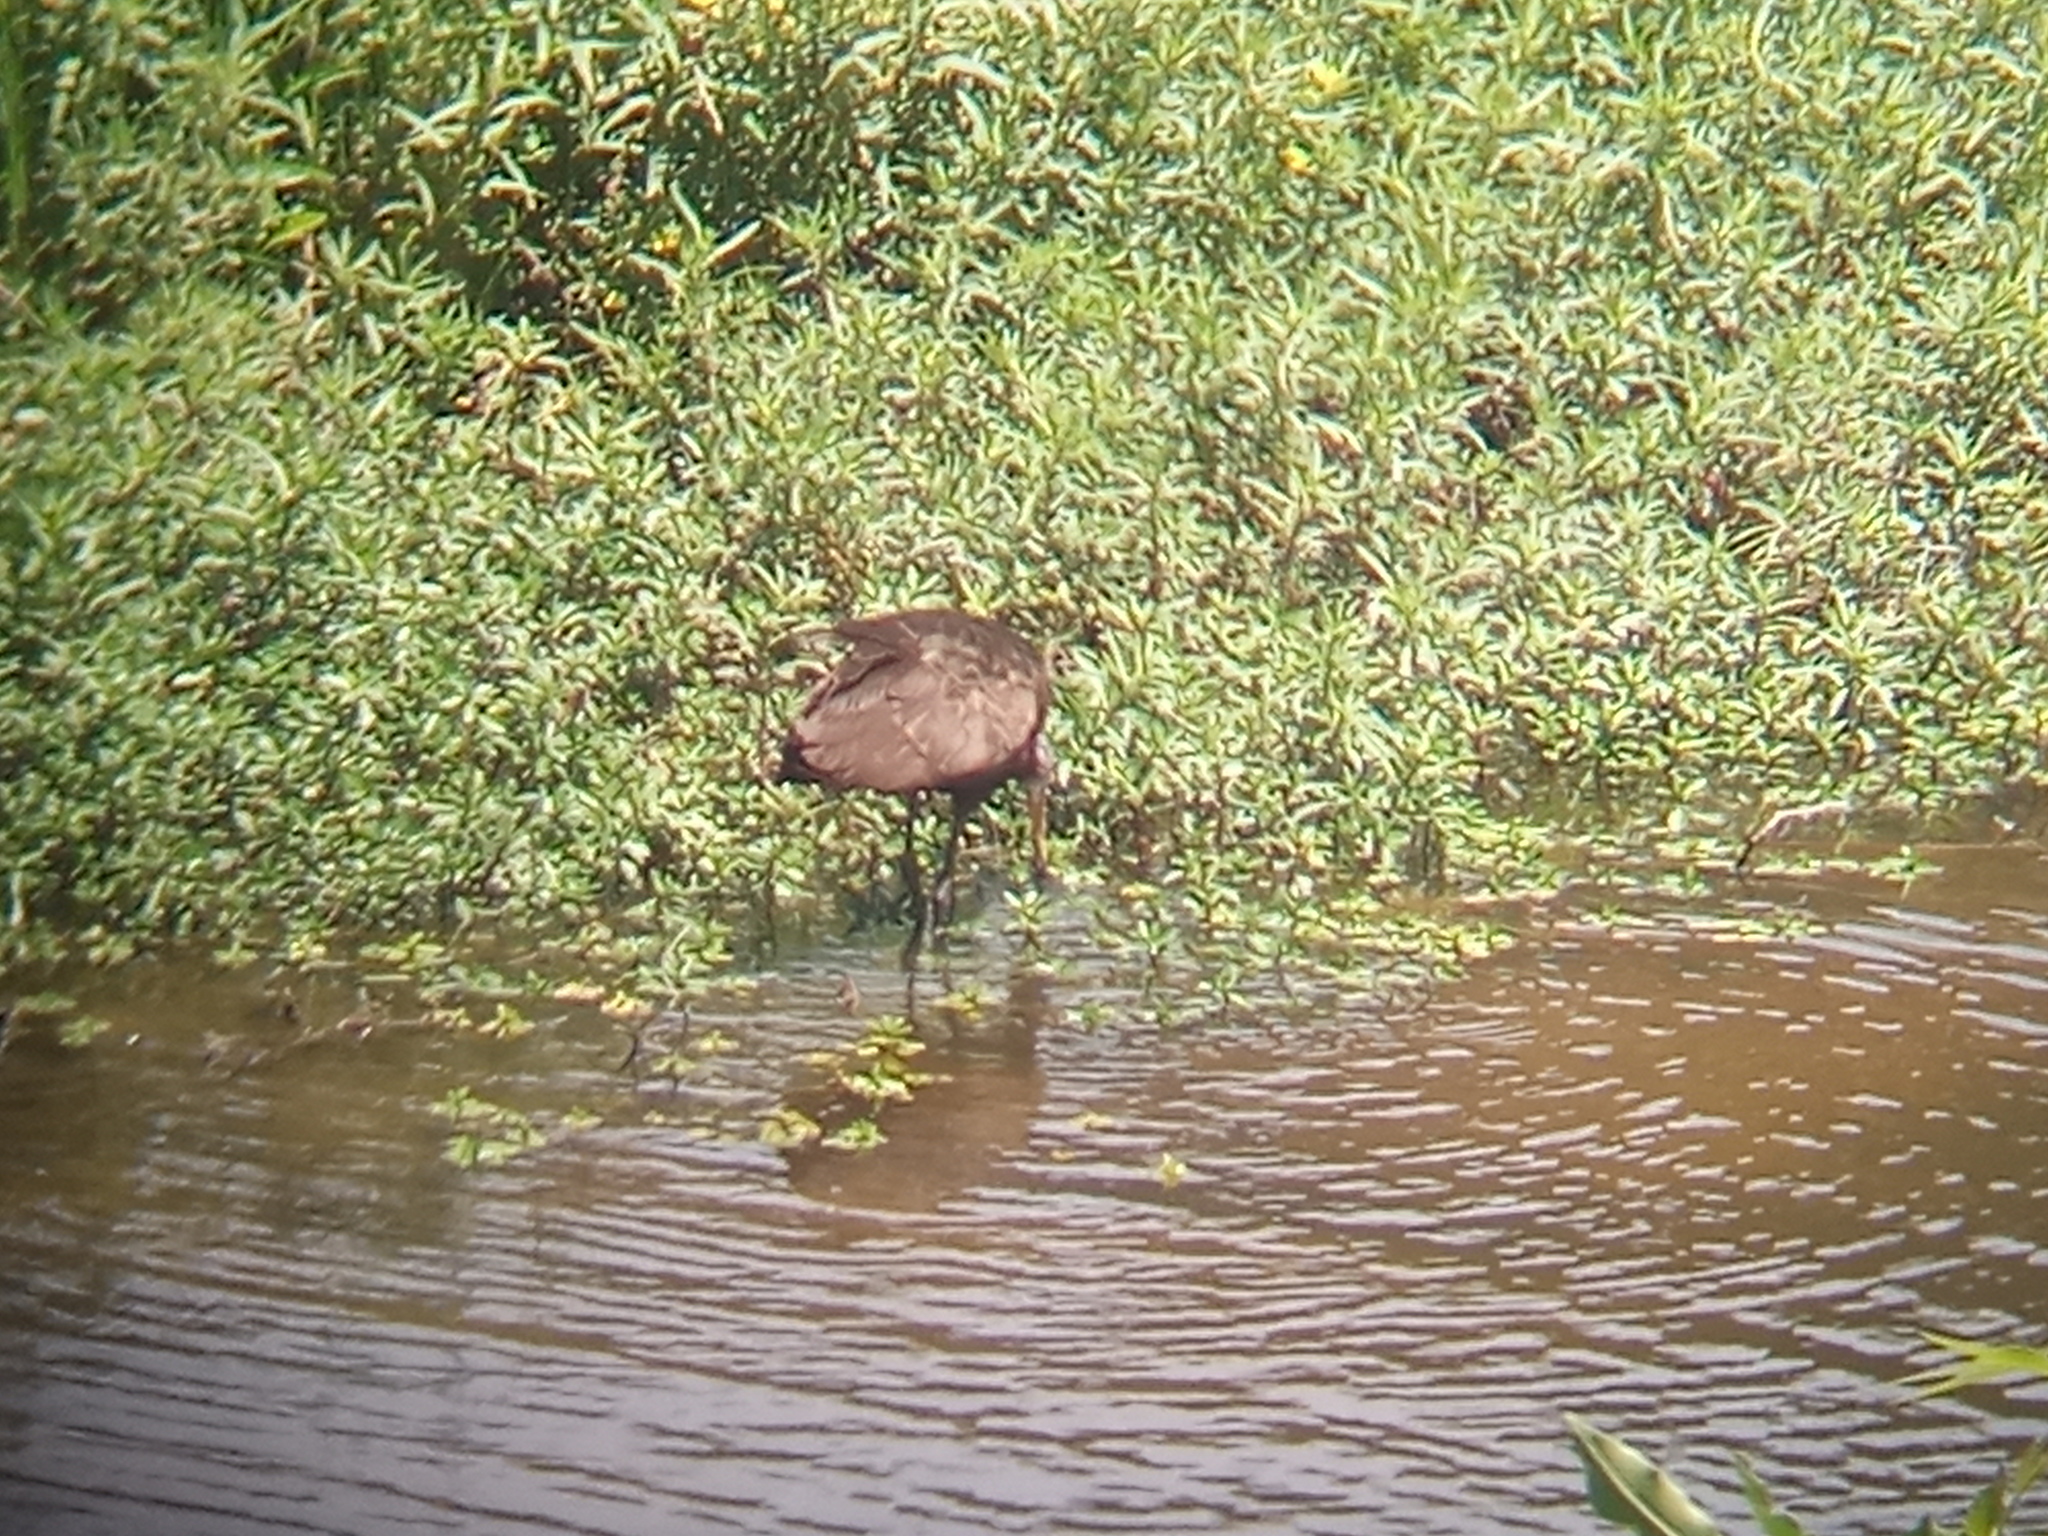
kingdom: Animalia
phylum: Chordata
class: Aves
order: Gruiformes
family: Aramidae
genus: Aramus
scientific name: Aramus guarauna
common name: Limpkin
